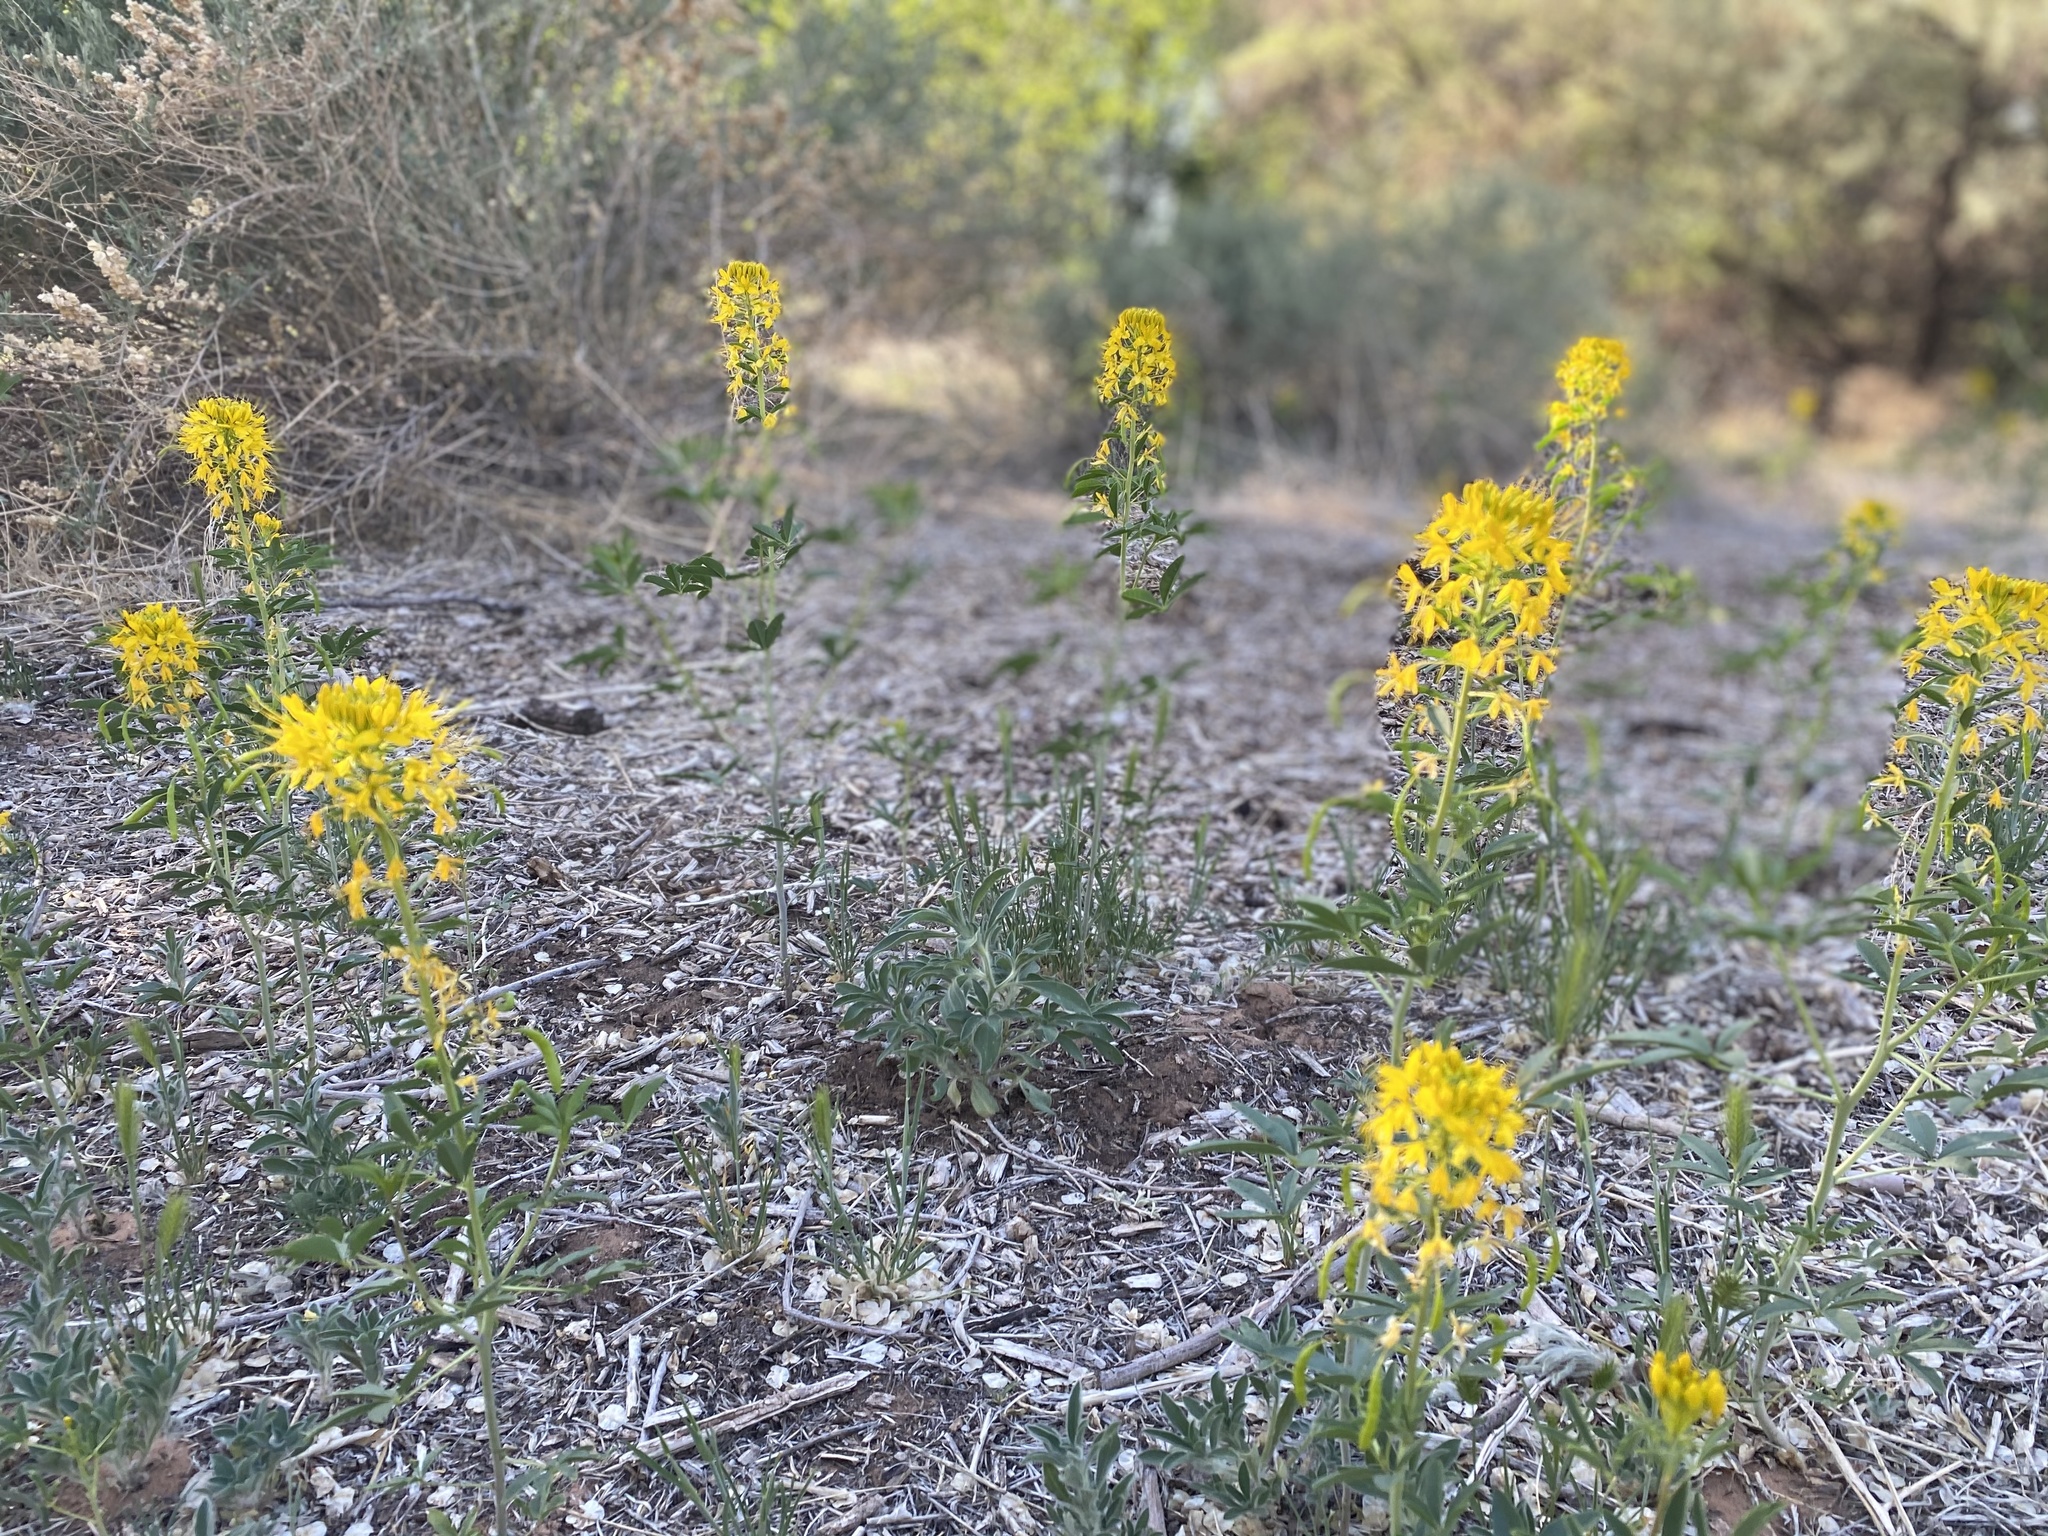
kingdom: Plantae
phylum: Tracheophyta
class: Magnoliopsida
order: Brassicales
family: Cleomaceae
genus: Cleomella
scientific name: Cleomella lutea
